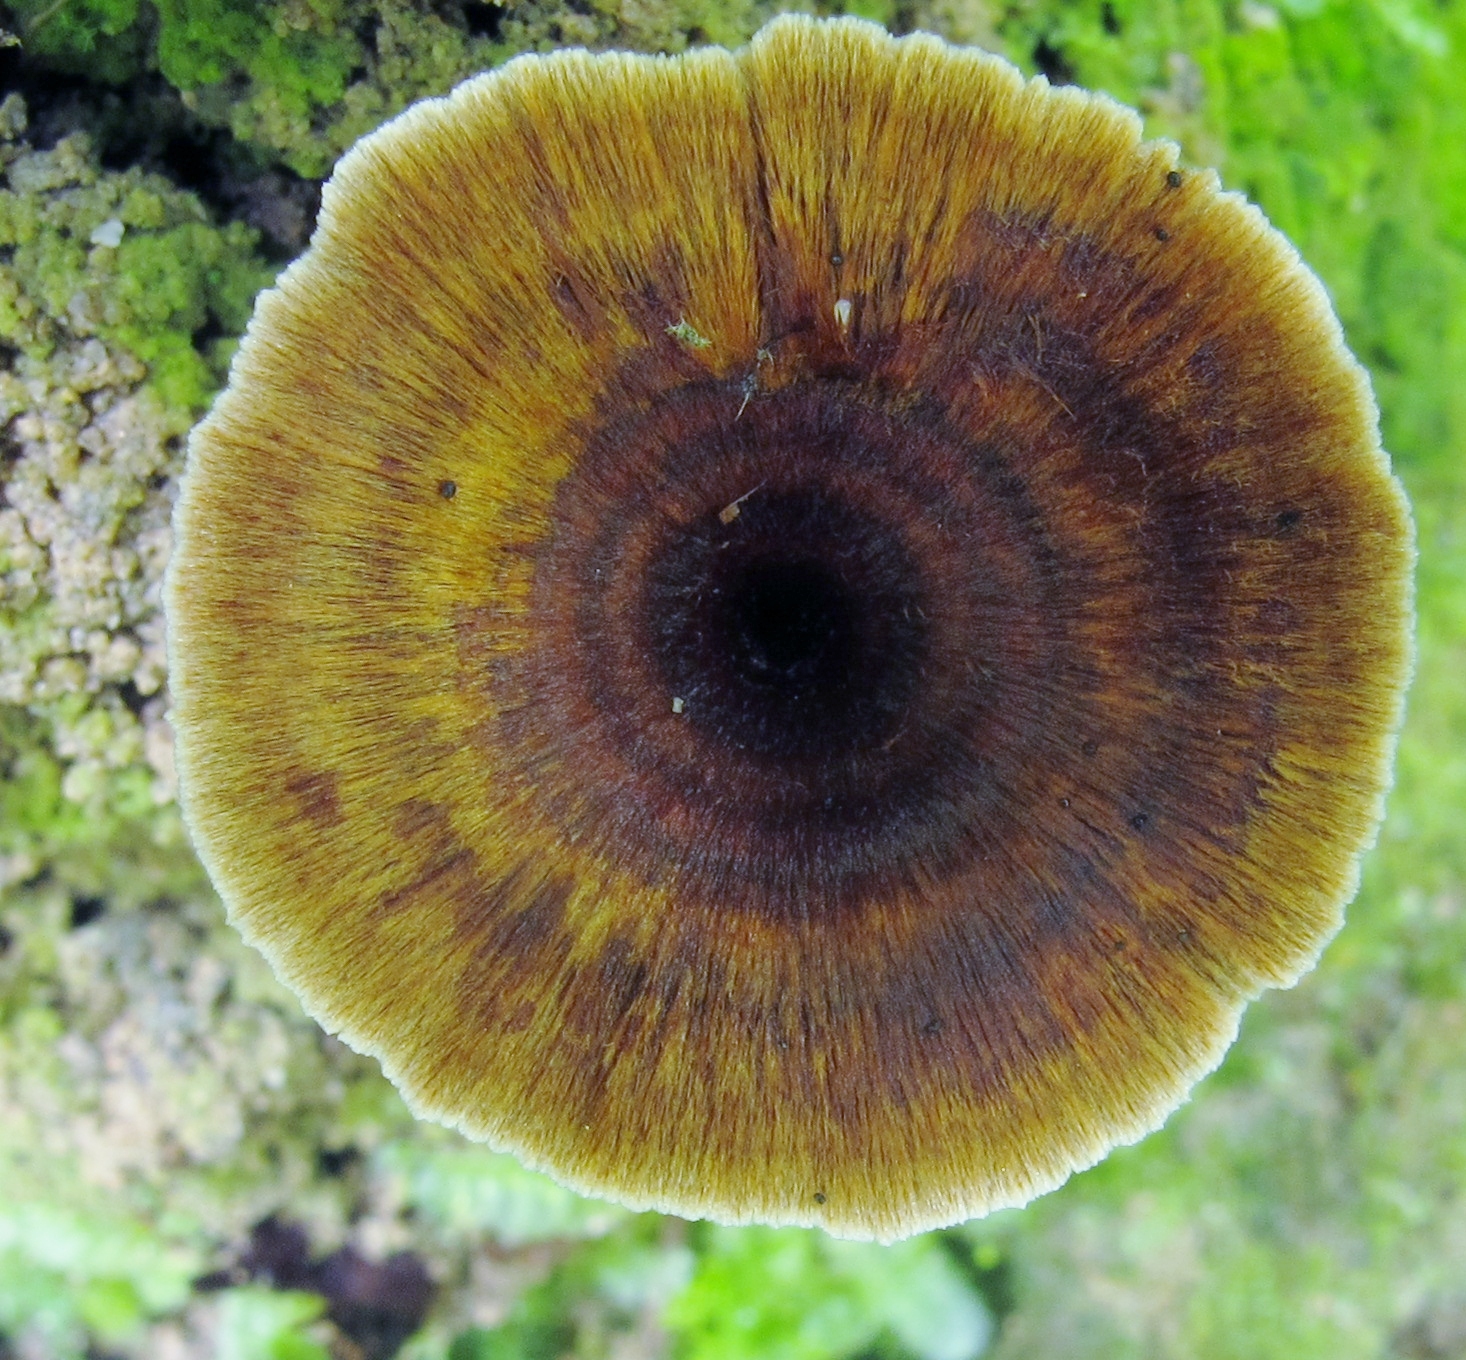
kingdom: Fungi
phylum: Basidiomycota
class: Agaricomycetes
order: Hymenochaetales
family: Hymenochaetaceae
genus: Coltricia
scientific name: Coltricia cinnamomea
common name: Shiny cinnamon polypore
